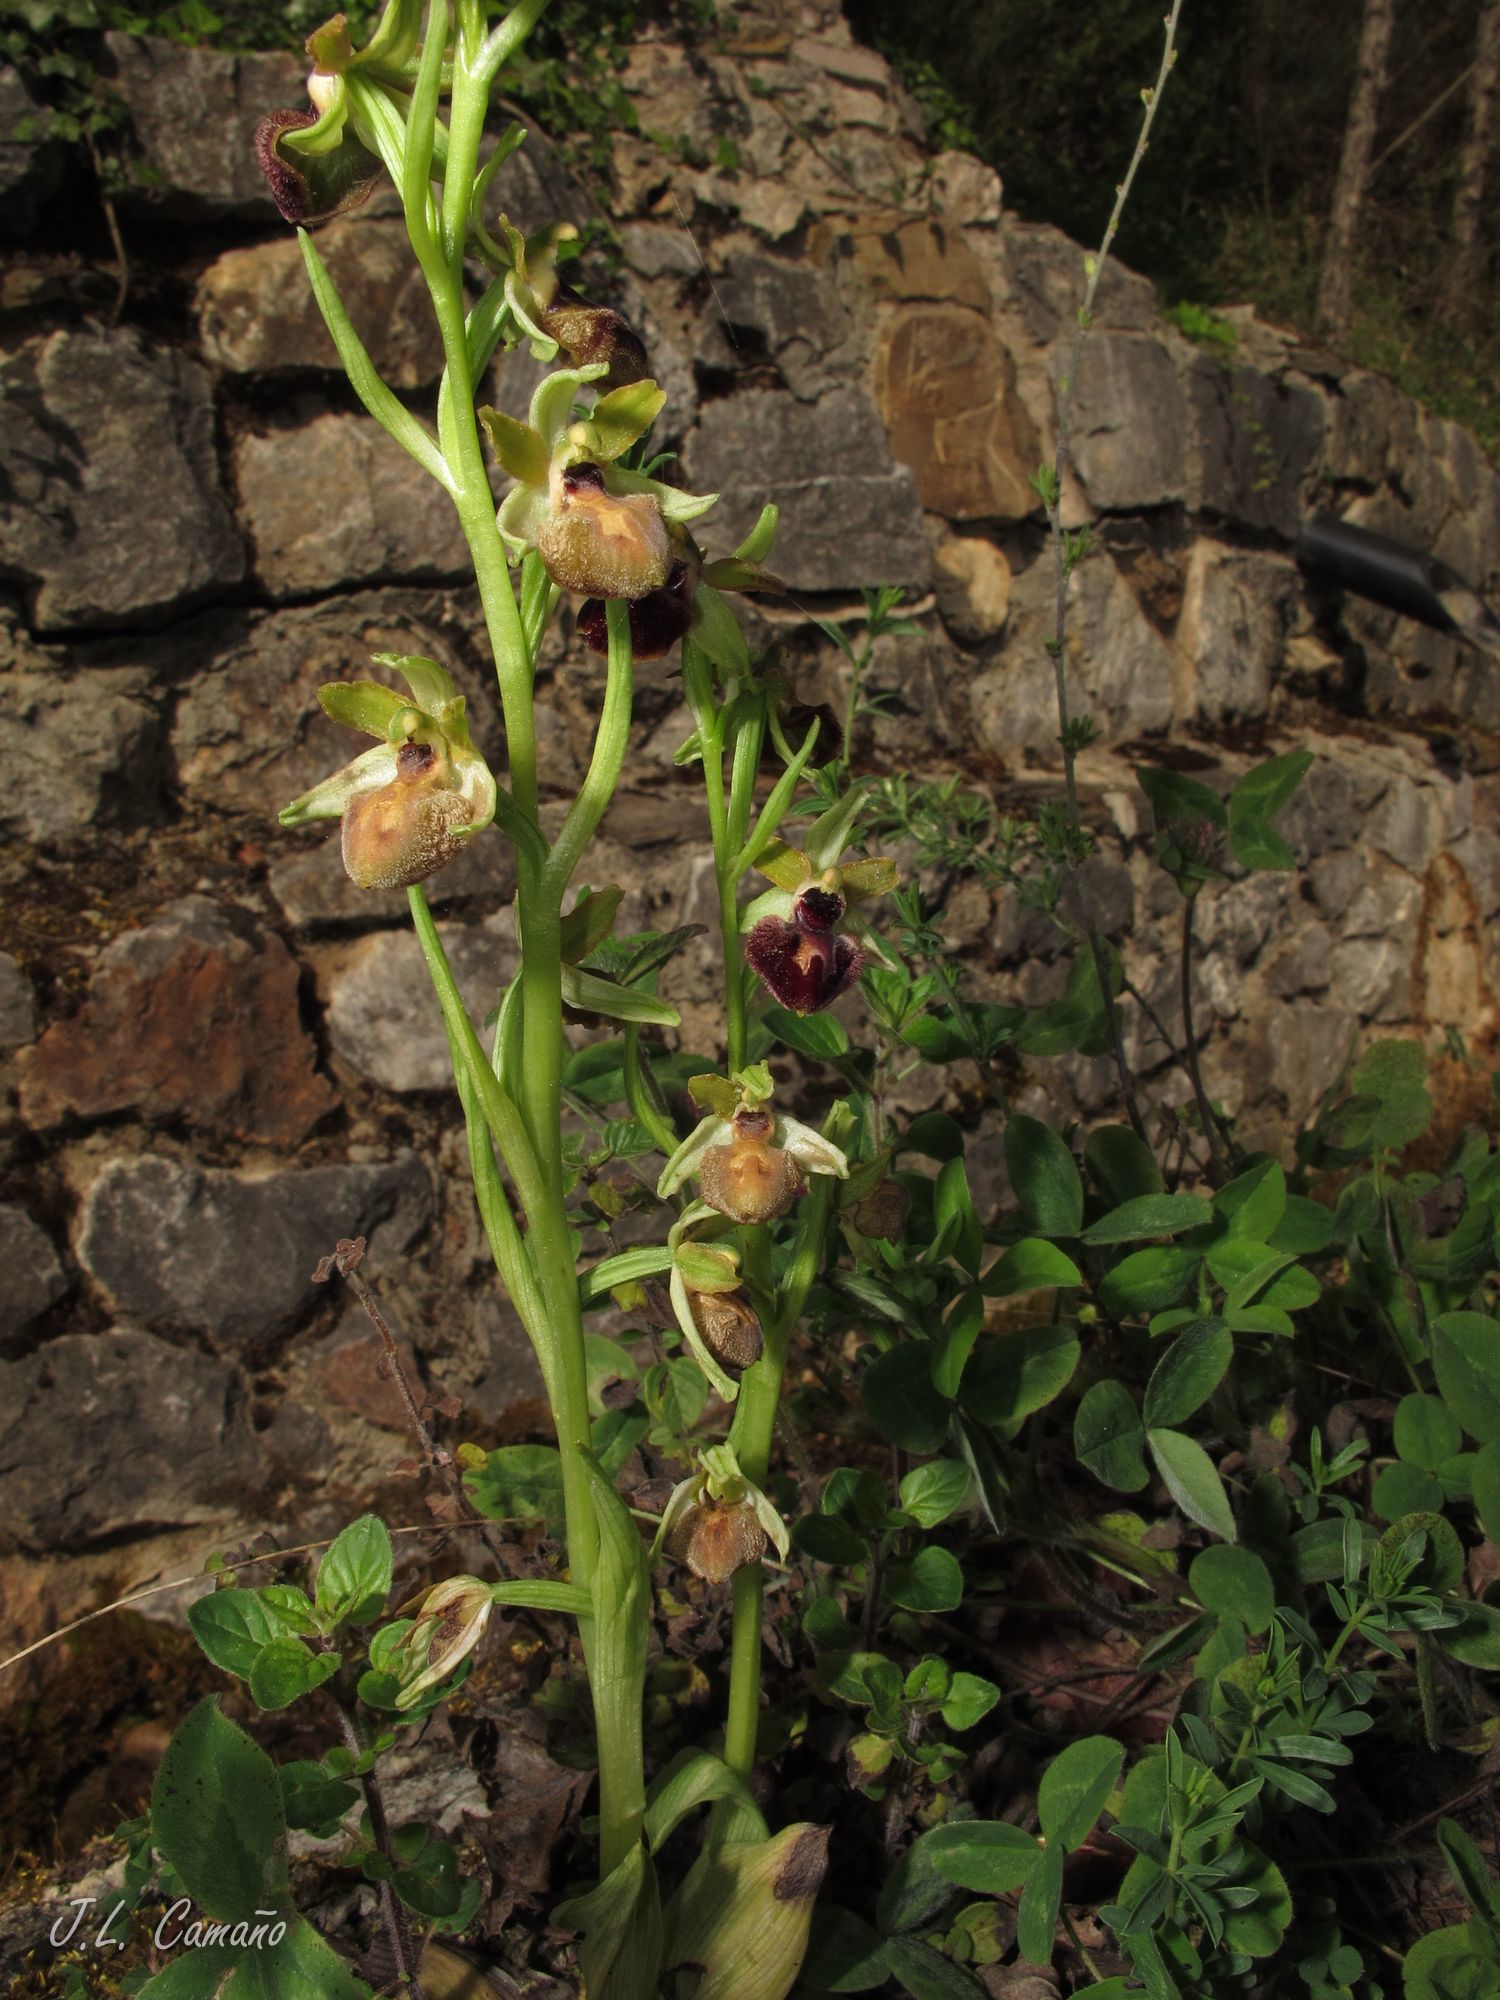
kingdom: Plantae
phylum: Tracheophyta
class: Liliopsida
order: Asparagales
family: Orchidaceae
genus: Ophrys
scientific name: Ophrys sphegodes
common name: Early spider-orchid
